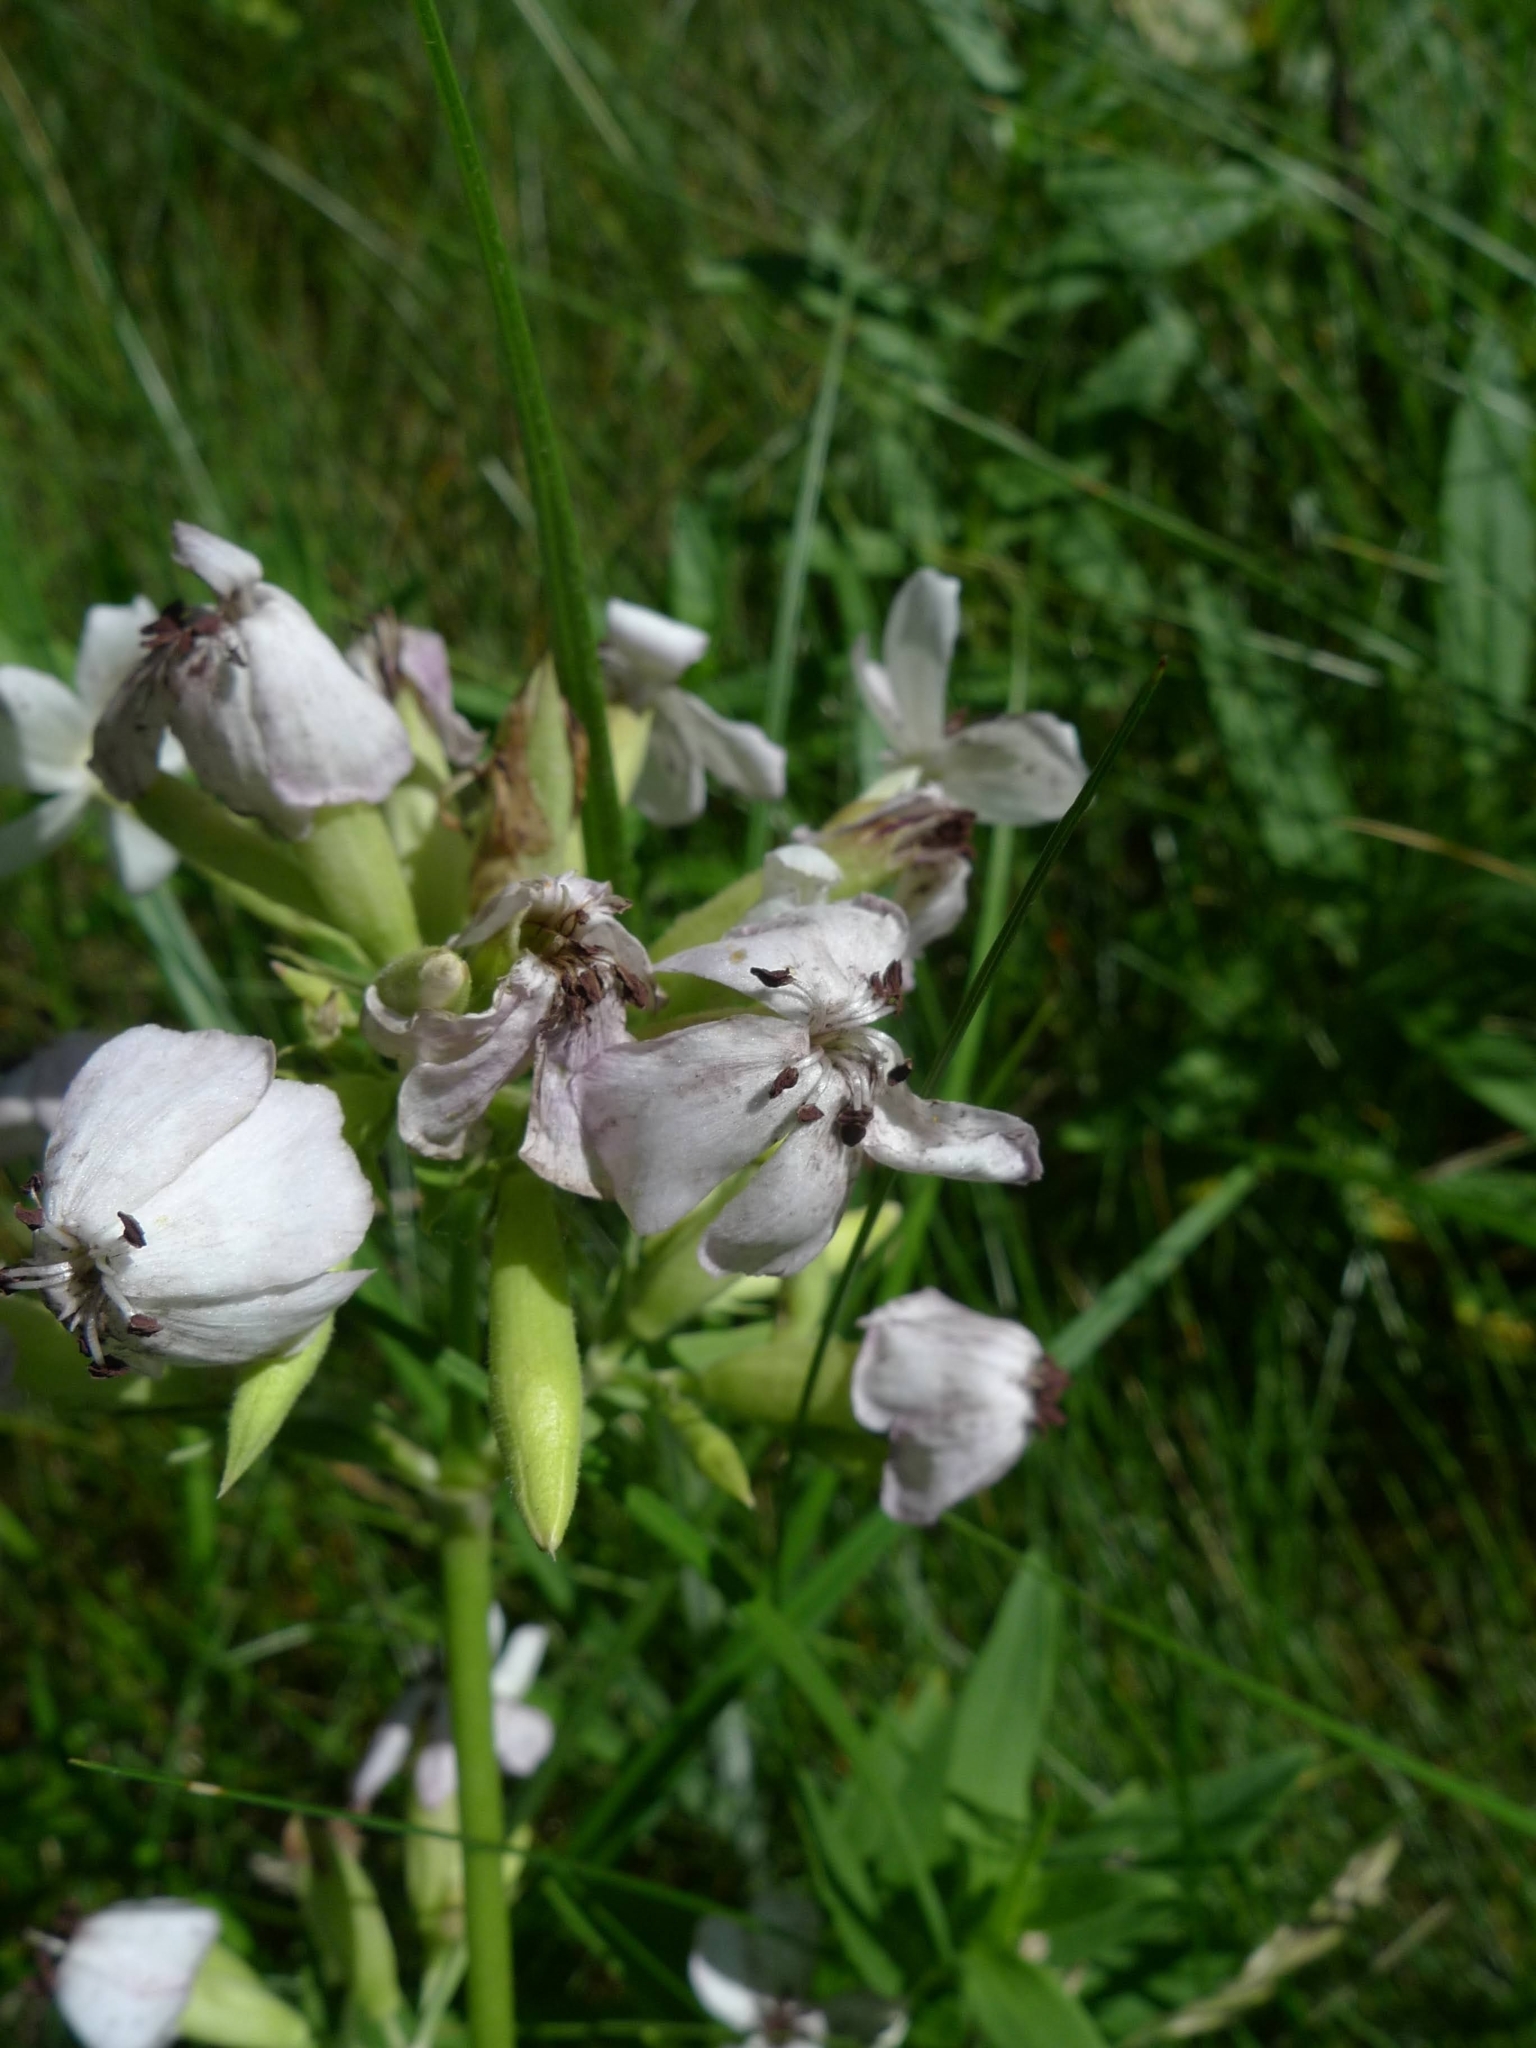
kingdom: Plantae
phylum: Tracheophyta
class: Magnoliopsida
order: Caryophyllales
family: Caryophyllaceae
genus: Saponaria
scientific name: Saponaria officinalis
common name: Soapwort
